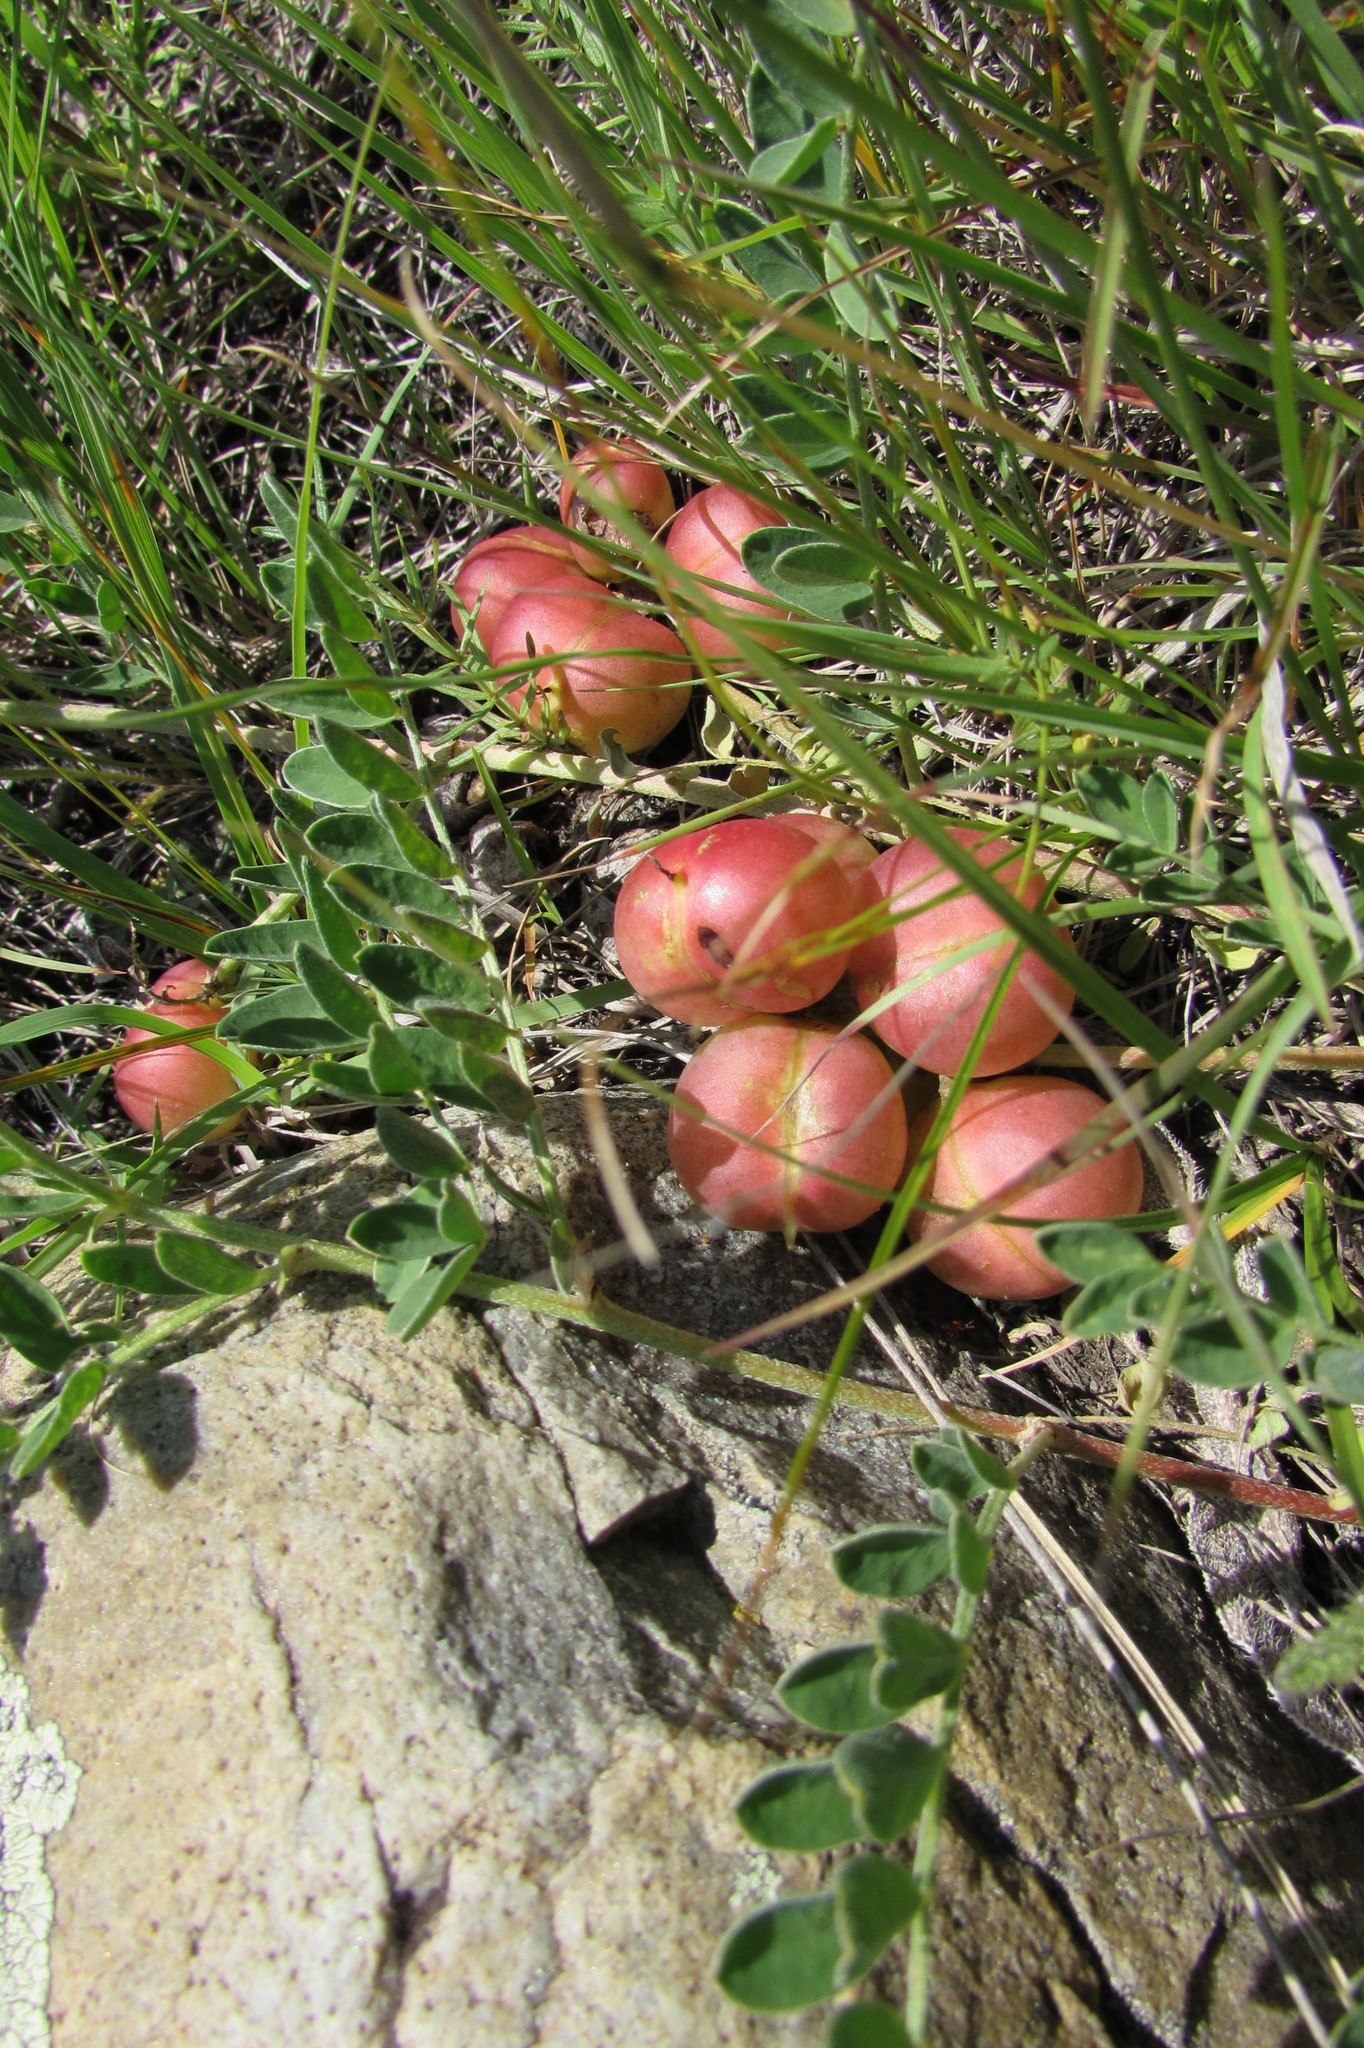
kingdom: Plantae
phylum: Tracheophyta
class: Magnoliopsida
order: Fabales
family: Fabaceae
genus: Astragalus
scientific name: Astragalus crassicarpus
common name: Ground-plum milk-vetch
